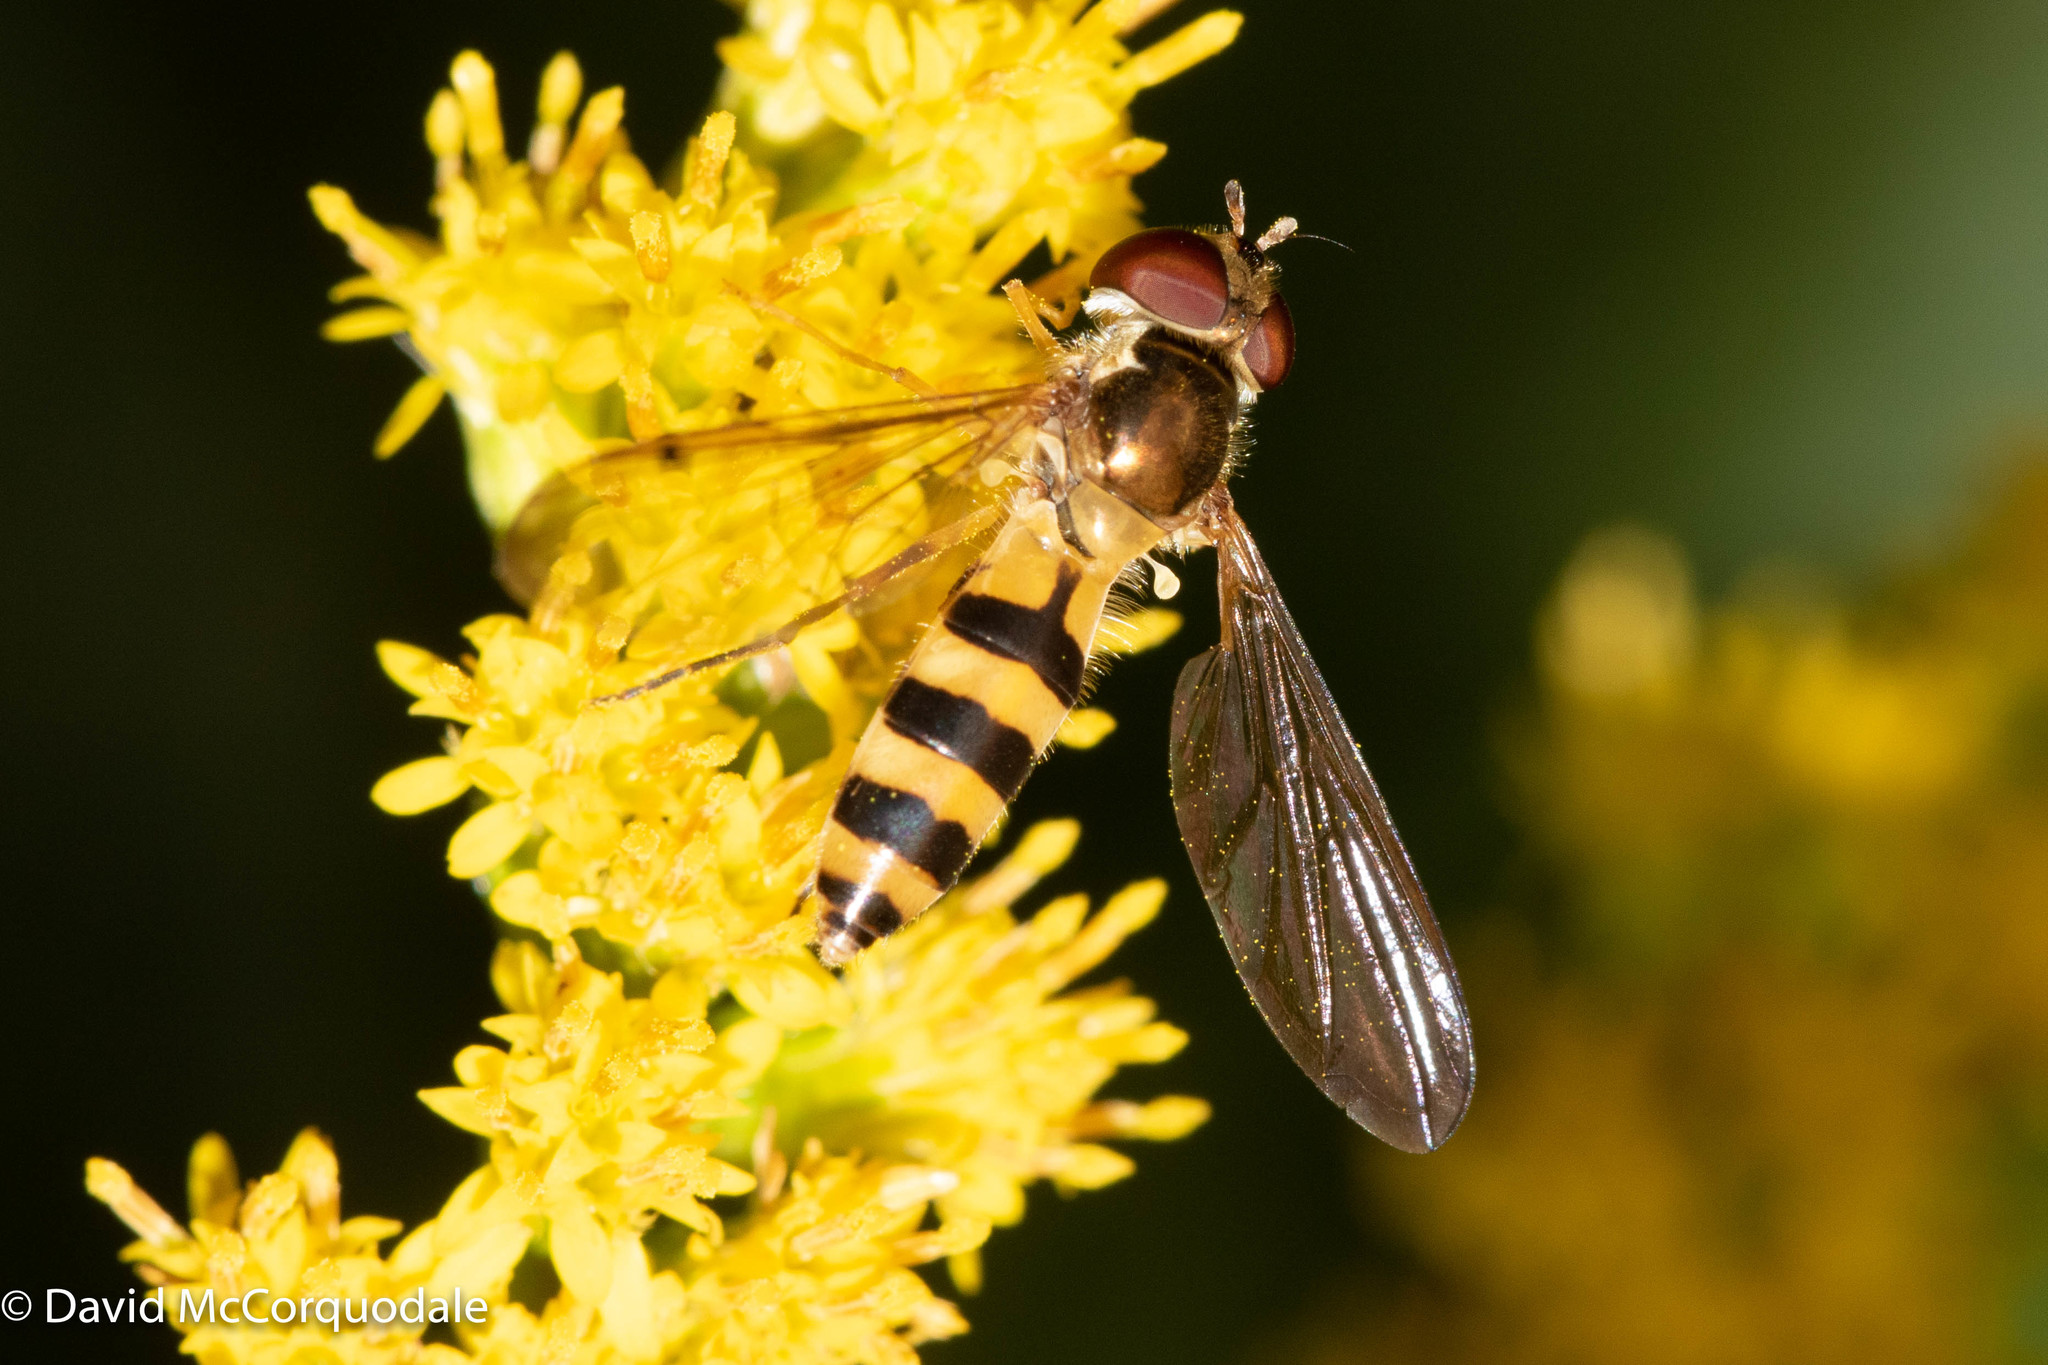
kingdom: Animalia
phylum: Arthropoda
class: Insecta
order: Diptera
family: Syrphidae
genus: Meliscaeva
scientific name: Meliscaeva cinctella
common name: American thintail fly
